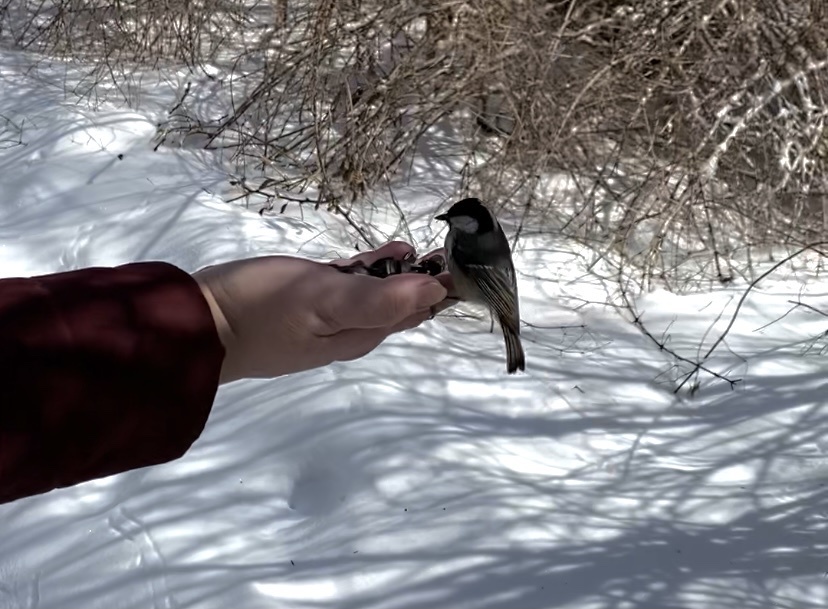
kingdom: Animalia
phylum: Chordata
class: Aves
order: Passeriformes
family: Paridae
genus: Periparus
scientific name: Periparus ater
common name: Coal tit
